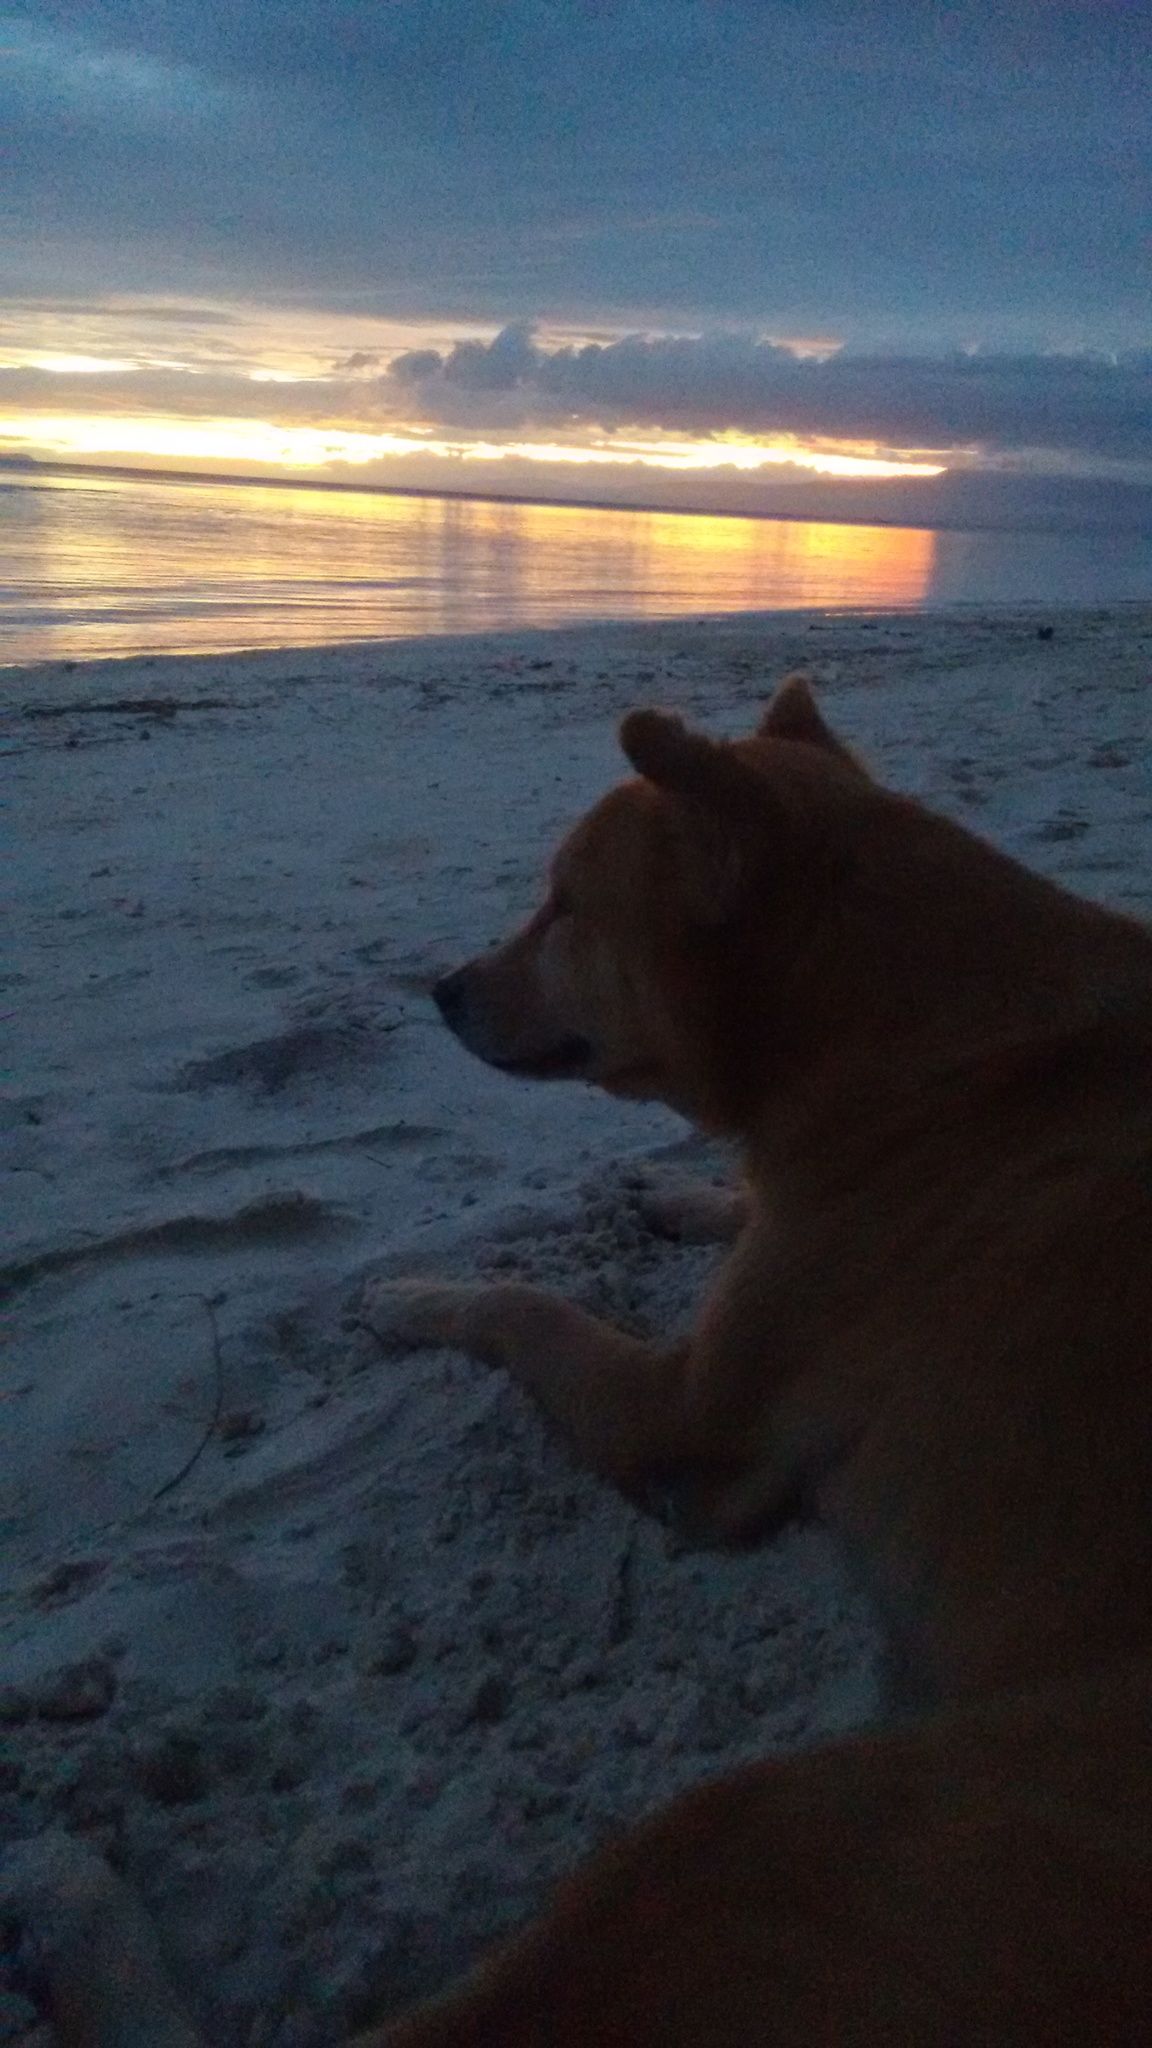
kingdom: Animalia
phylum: Chordata
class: Mammalia
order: Carnivora
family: Canidae
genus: Canis
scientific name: Canis lupus
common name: Gray wolf
